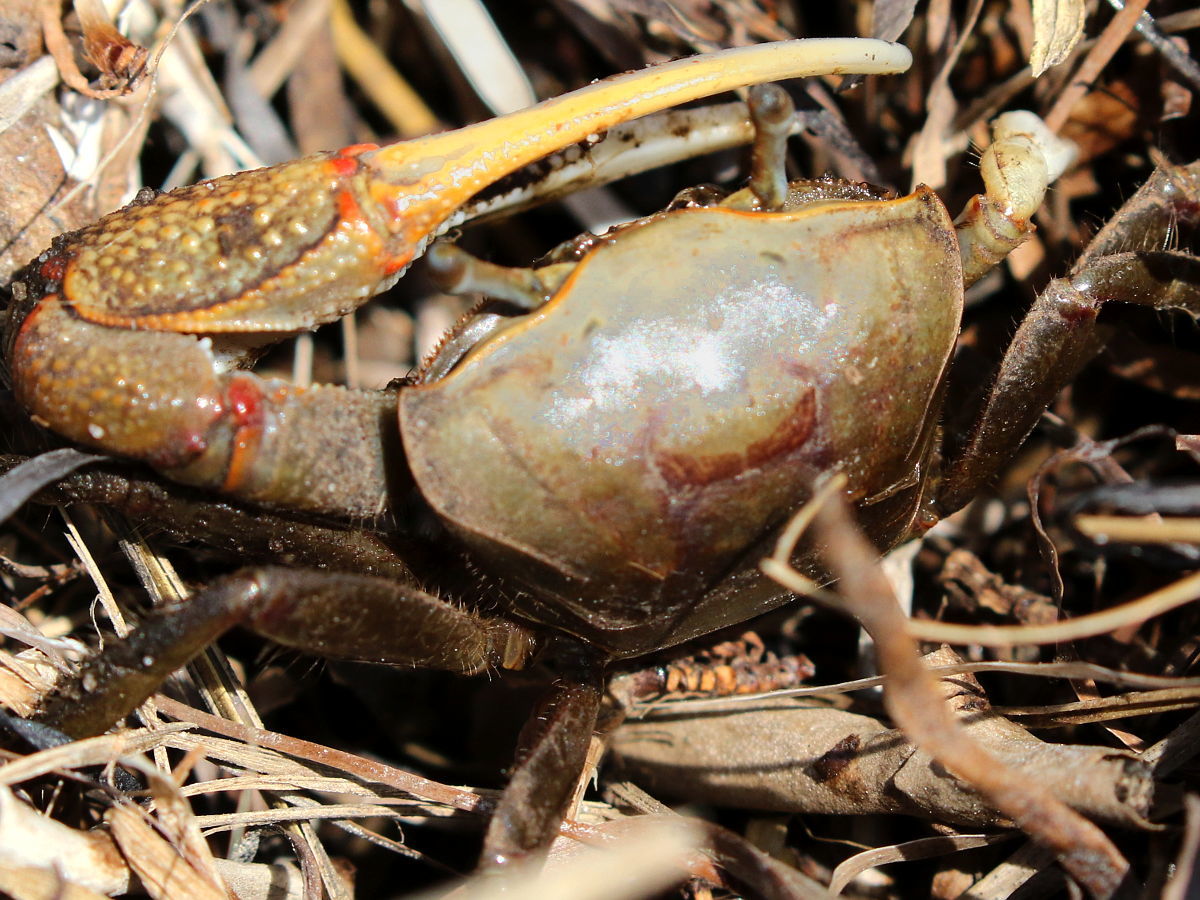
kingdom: Animalia
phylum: Arthropoda
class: Malacostraca
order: Decapoda
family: Ocypodidae
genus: Minuca
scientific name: Minuca minax
